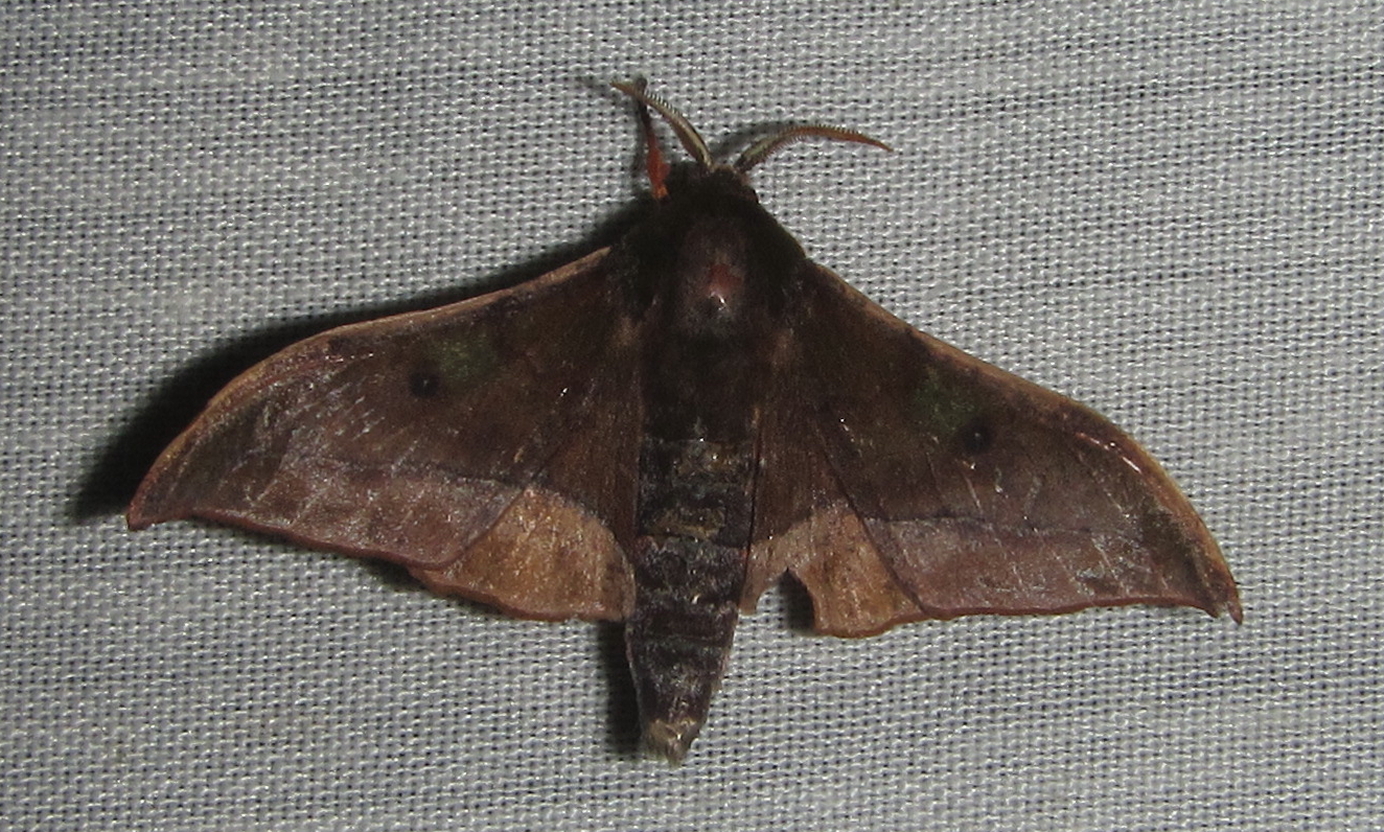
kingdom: Animalia
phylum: Arthropoda
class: Insecta
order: Lepidoptera
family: Geometridae
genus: Plegapteryx
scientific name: Plegapteryx anomalus
